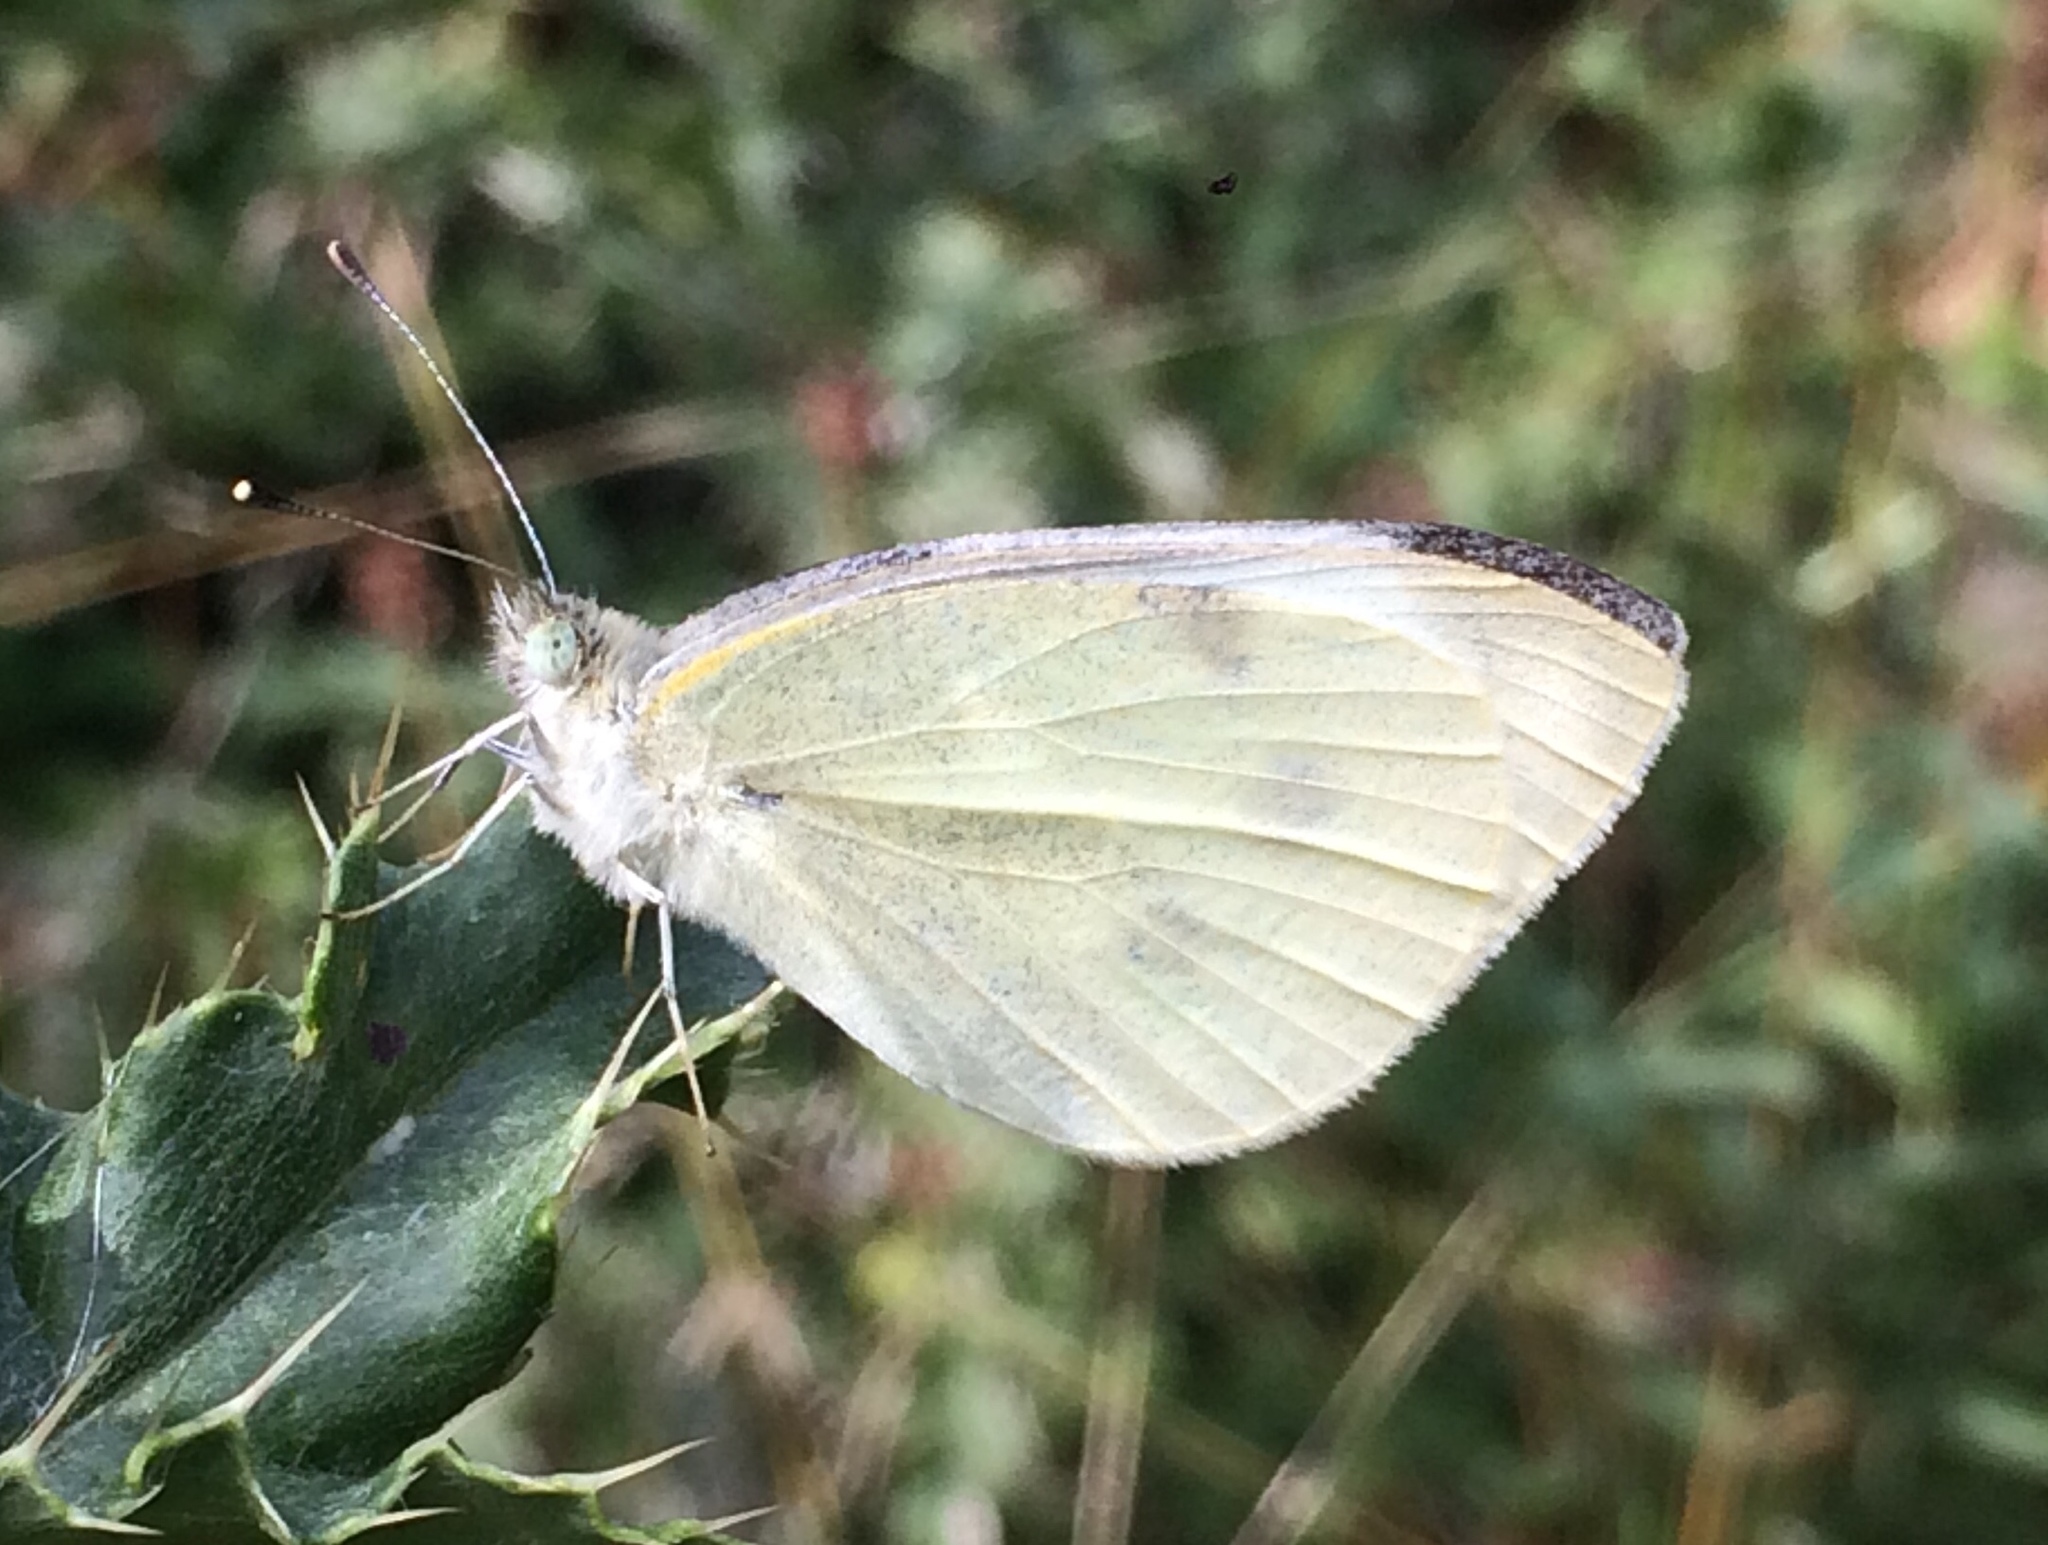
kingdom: Animalia
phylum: Arthropoda
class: Insecta
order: Lepidoptera
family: Pieridae
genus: Pieris
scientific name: Pieris brassicae
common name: Large white
